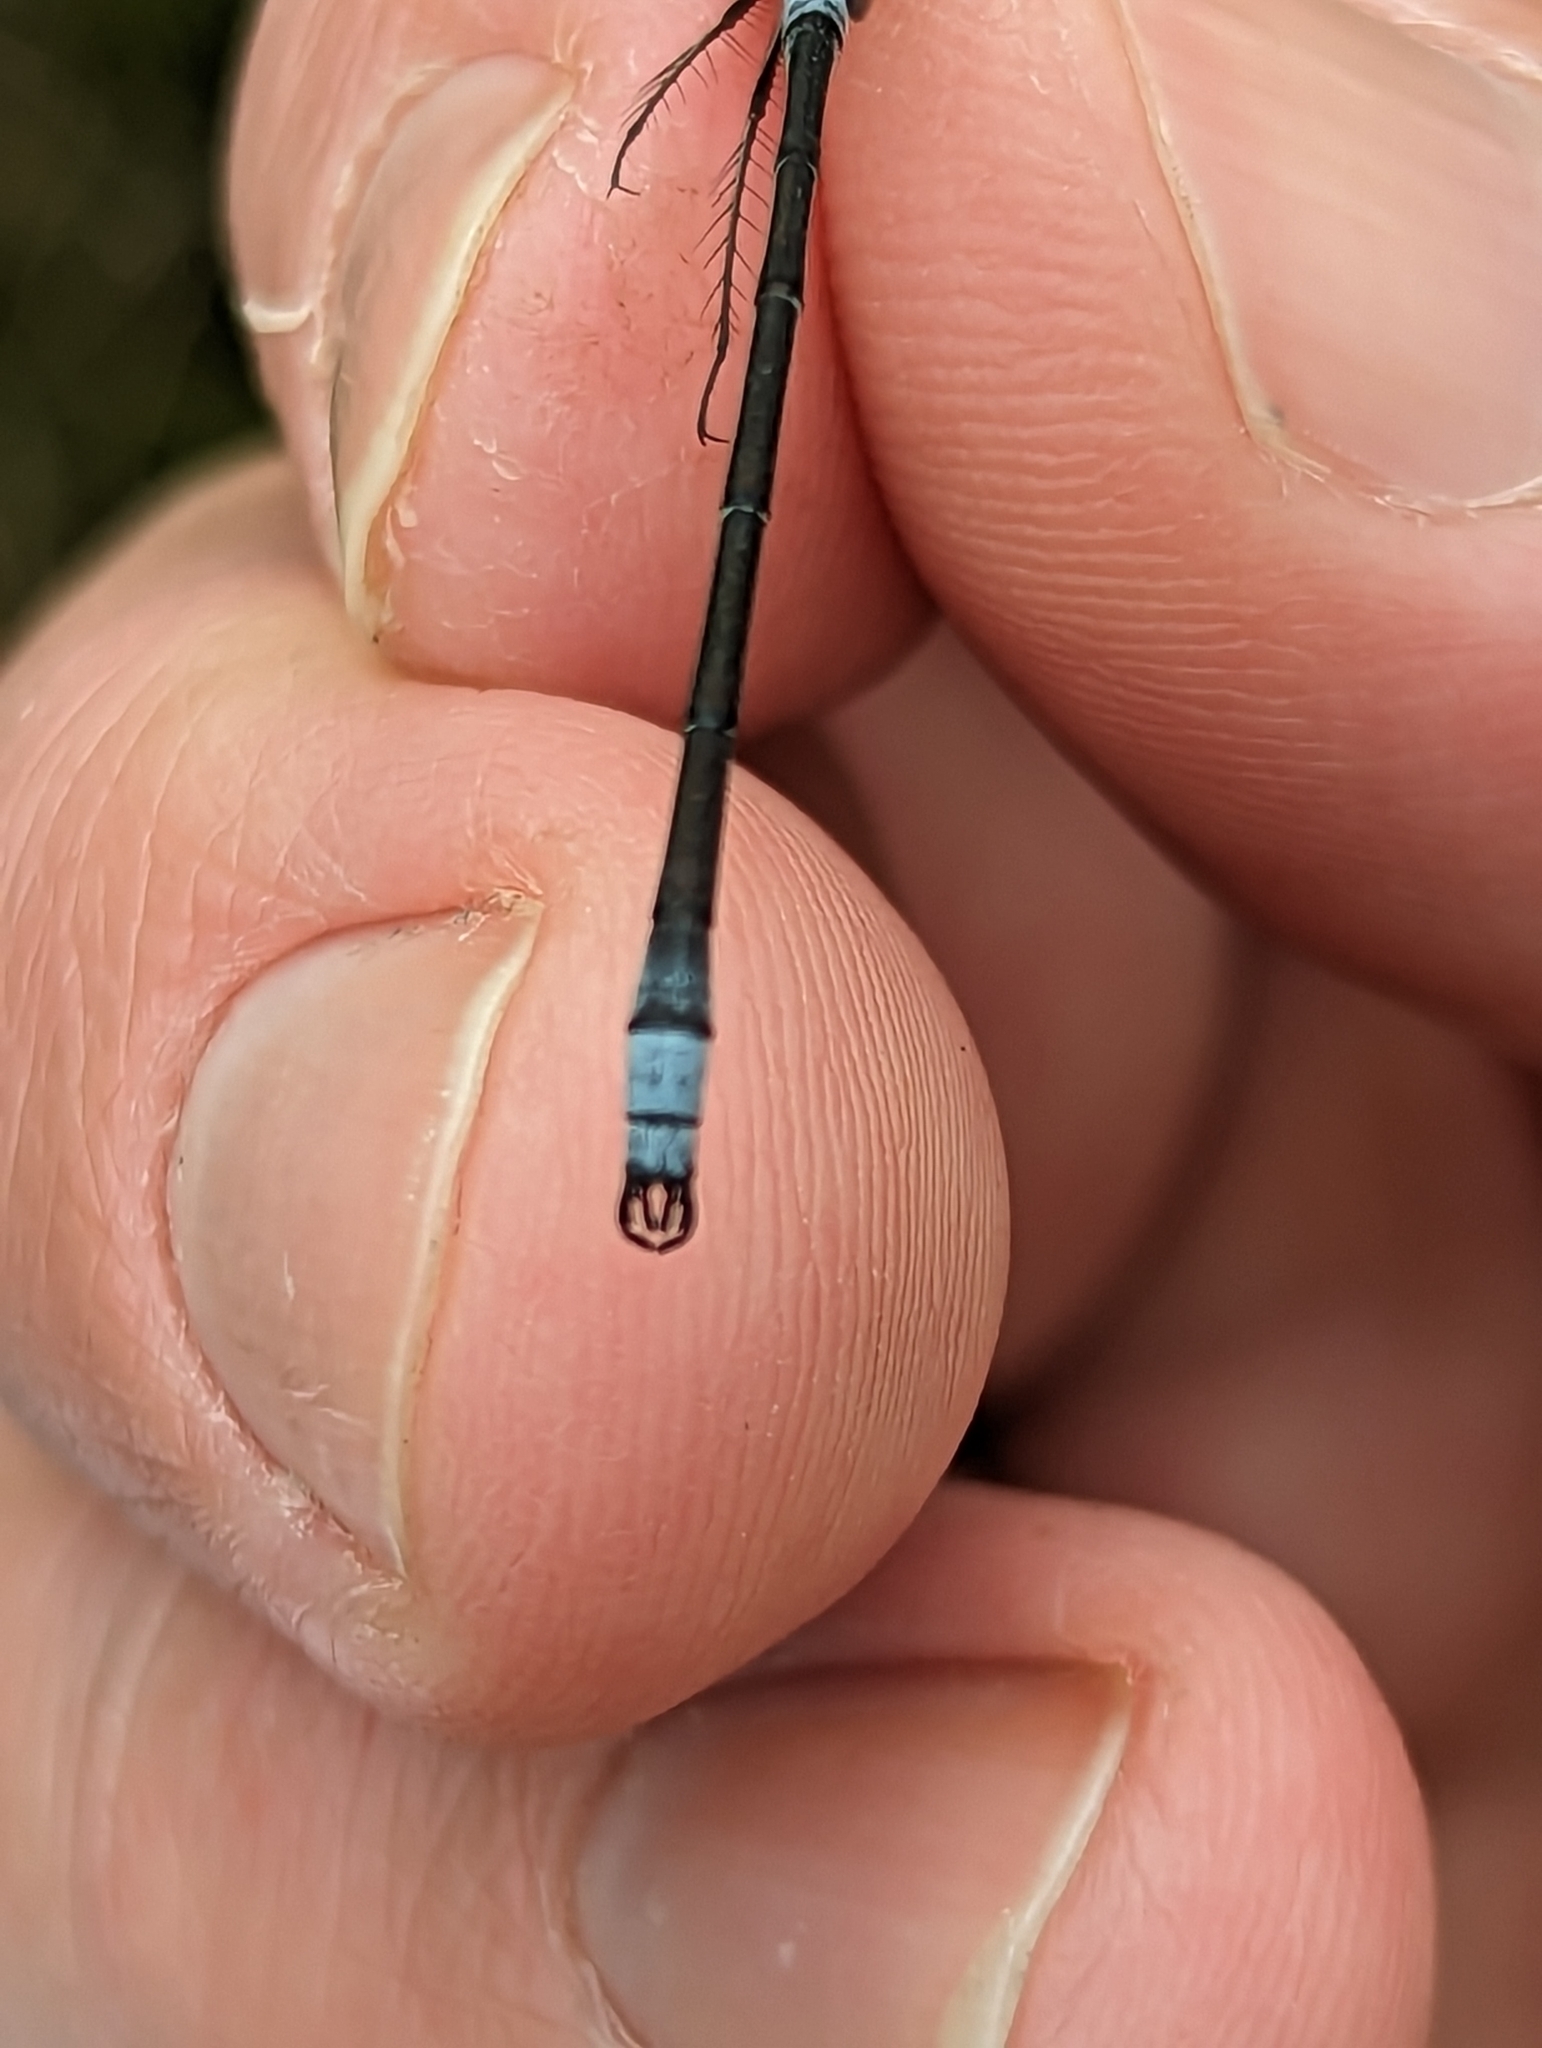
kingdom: Animalia
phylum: Arthropoda
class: Insecta
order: Odonata
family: Lestidae
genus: Lestes
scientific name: Lestes disjunctus
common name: Northern spreadwing
